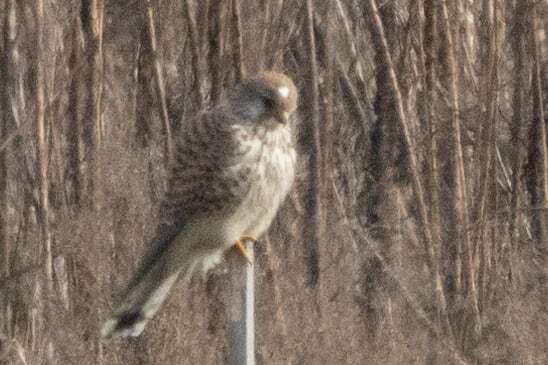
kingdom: Animalia
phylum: Chordata
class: Aves
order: Falconiformes
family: Falconidae
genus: Falco
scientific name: Falco tinnunculus
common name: Common kestrel
